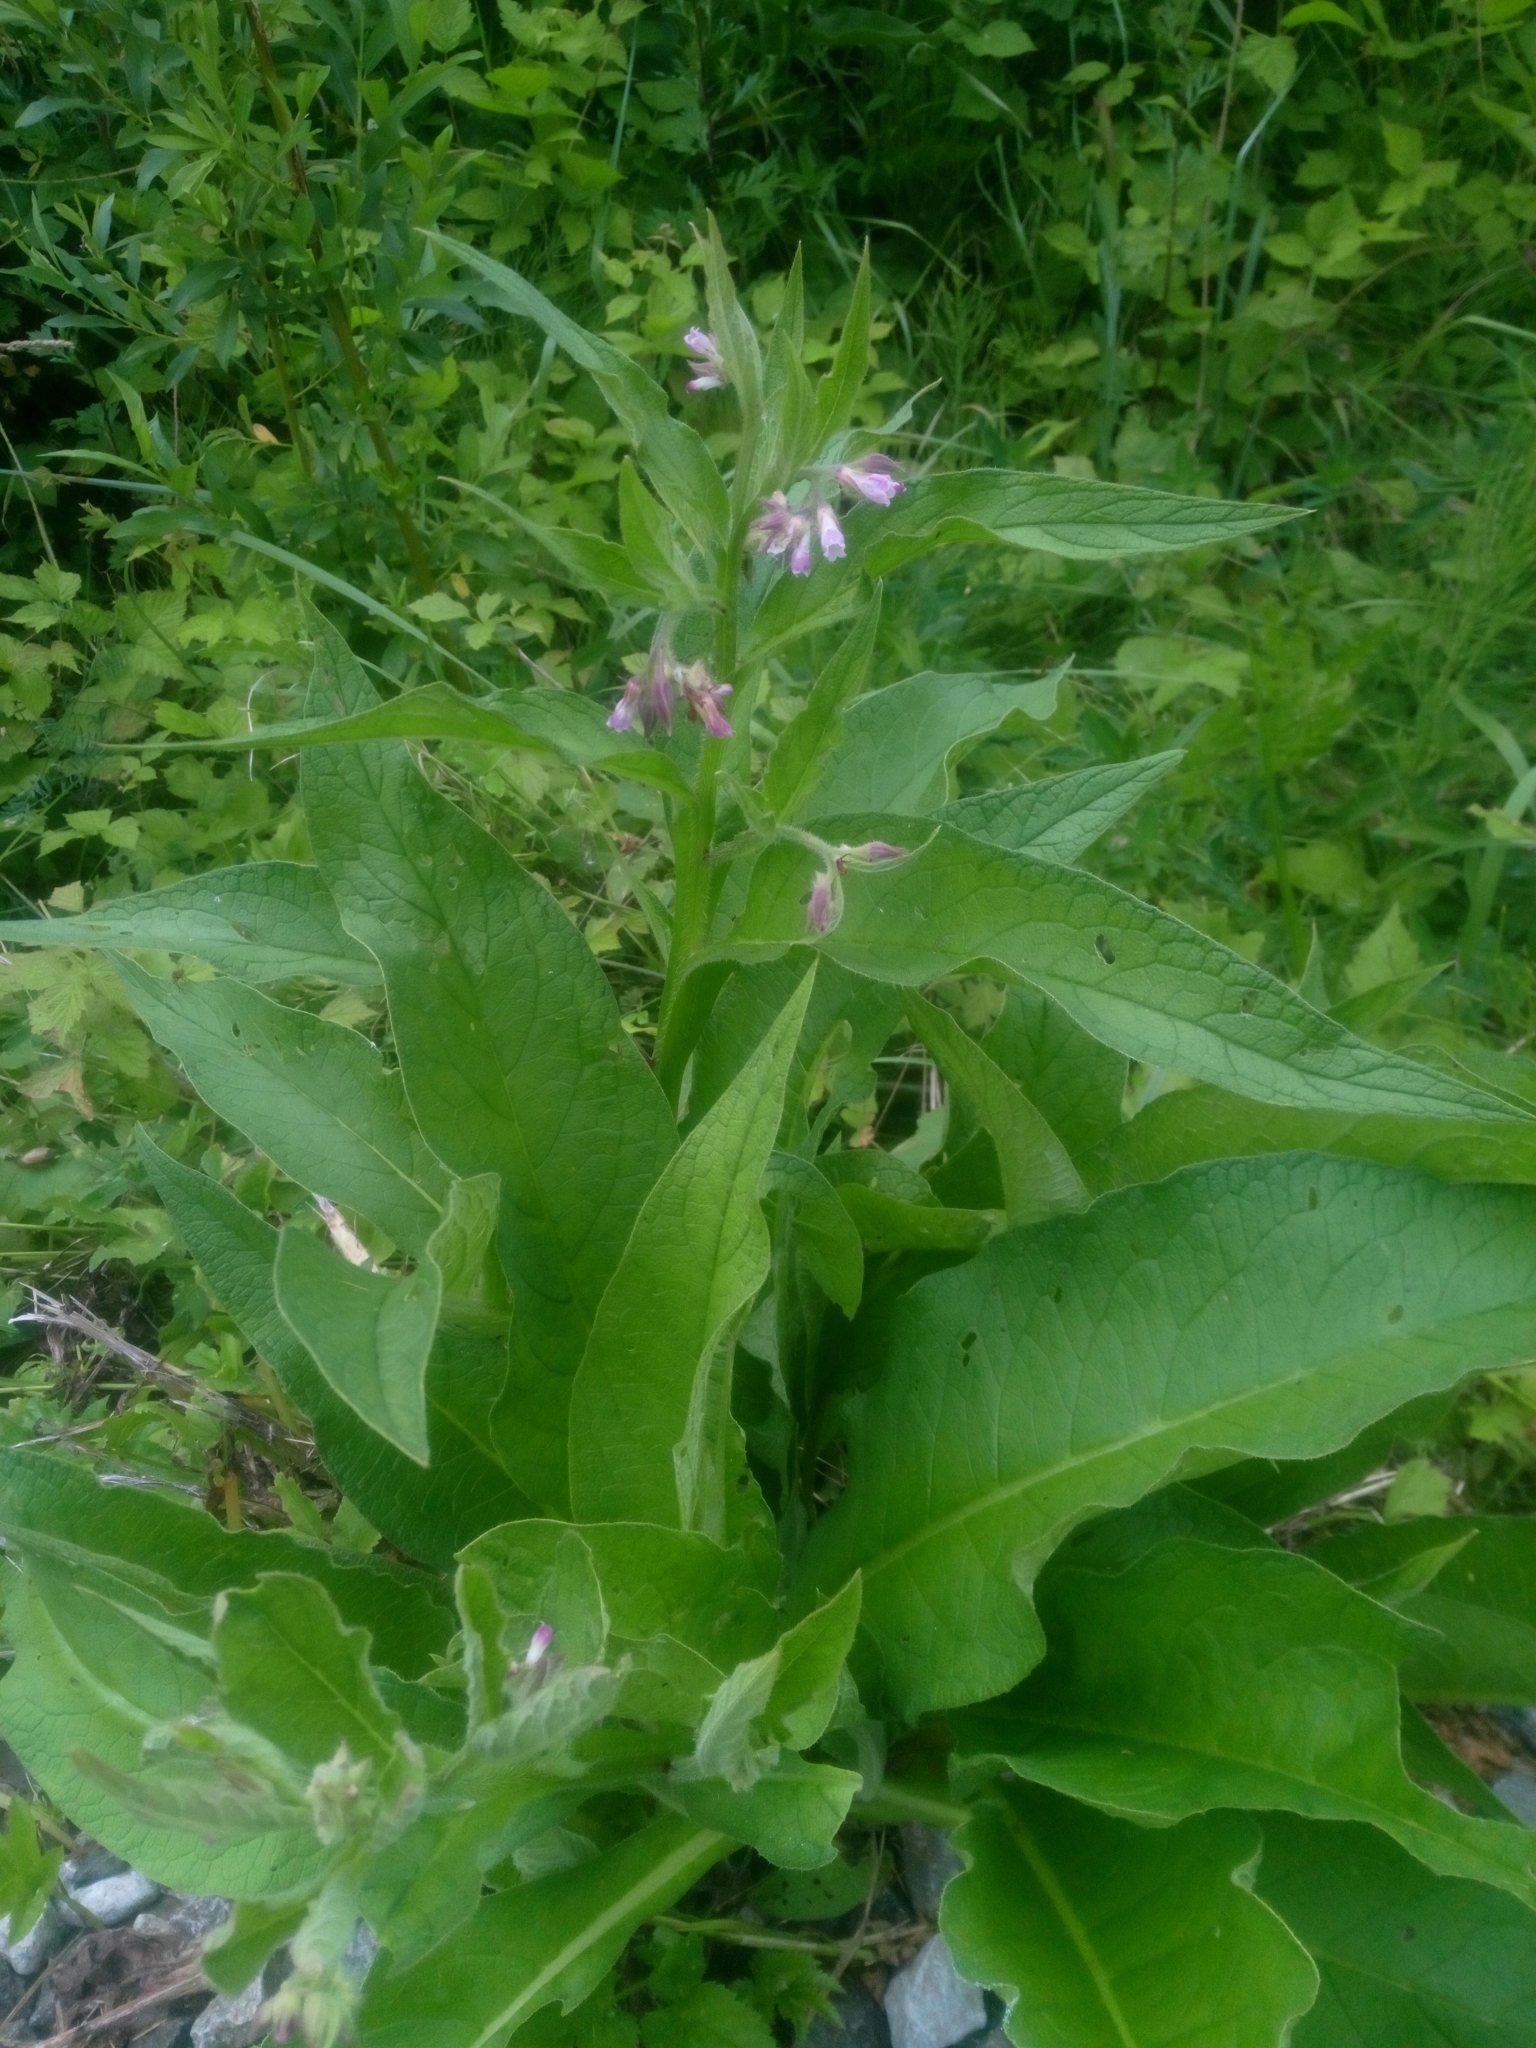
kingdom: Plantae
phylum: Tracheophyta
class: Magnoliopsida
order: Boraginales
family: Boraginaceae
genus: Symphytum
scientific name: Symphytum officinale
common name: Common comfrey
